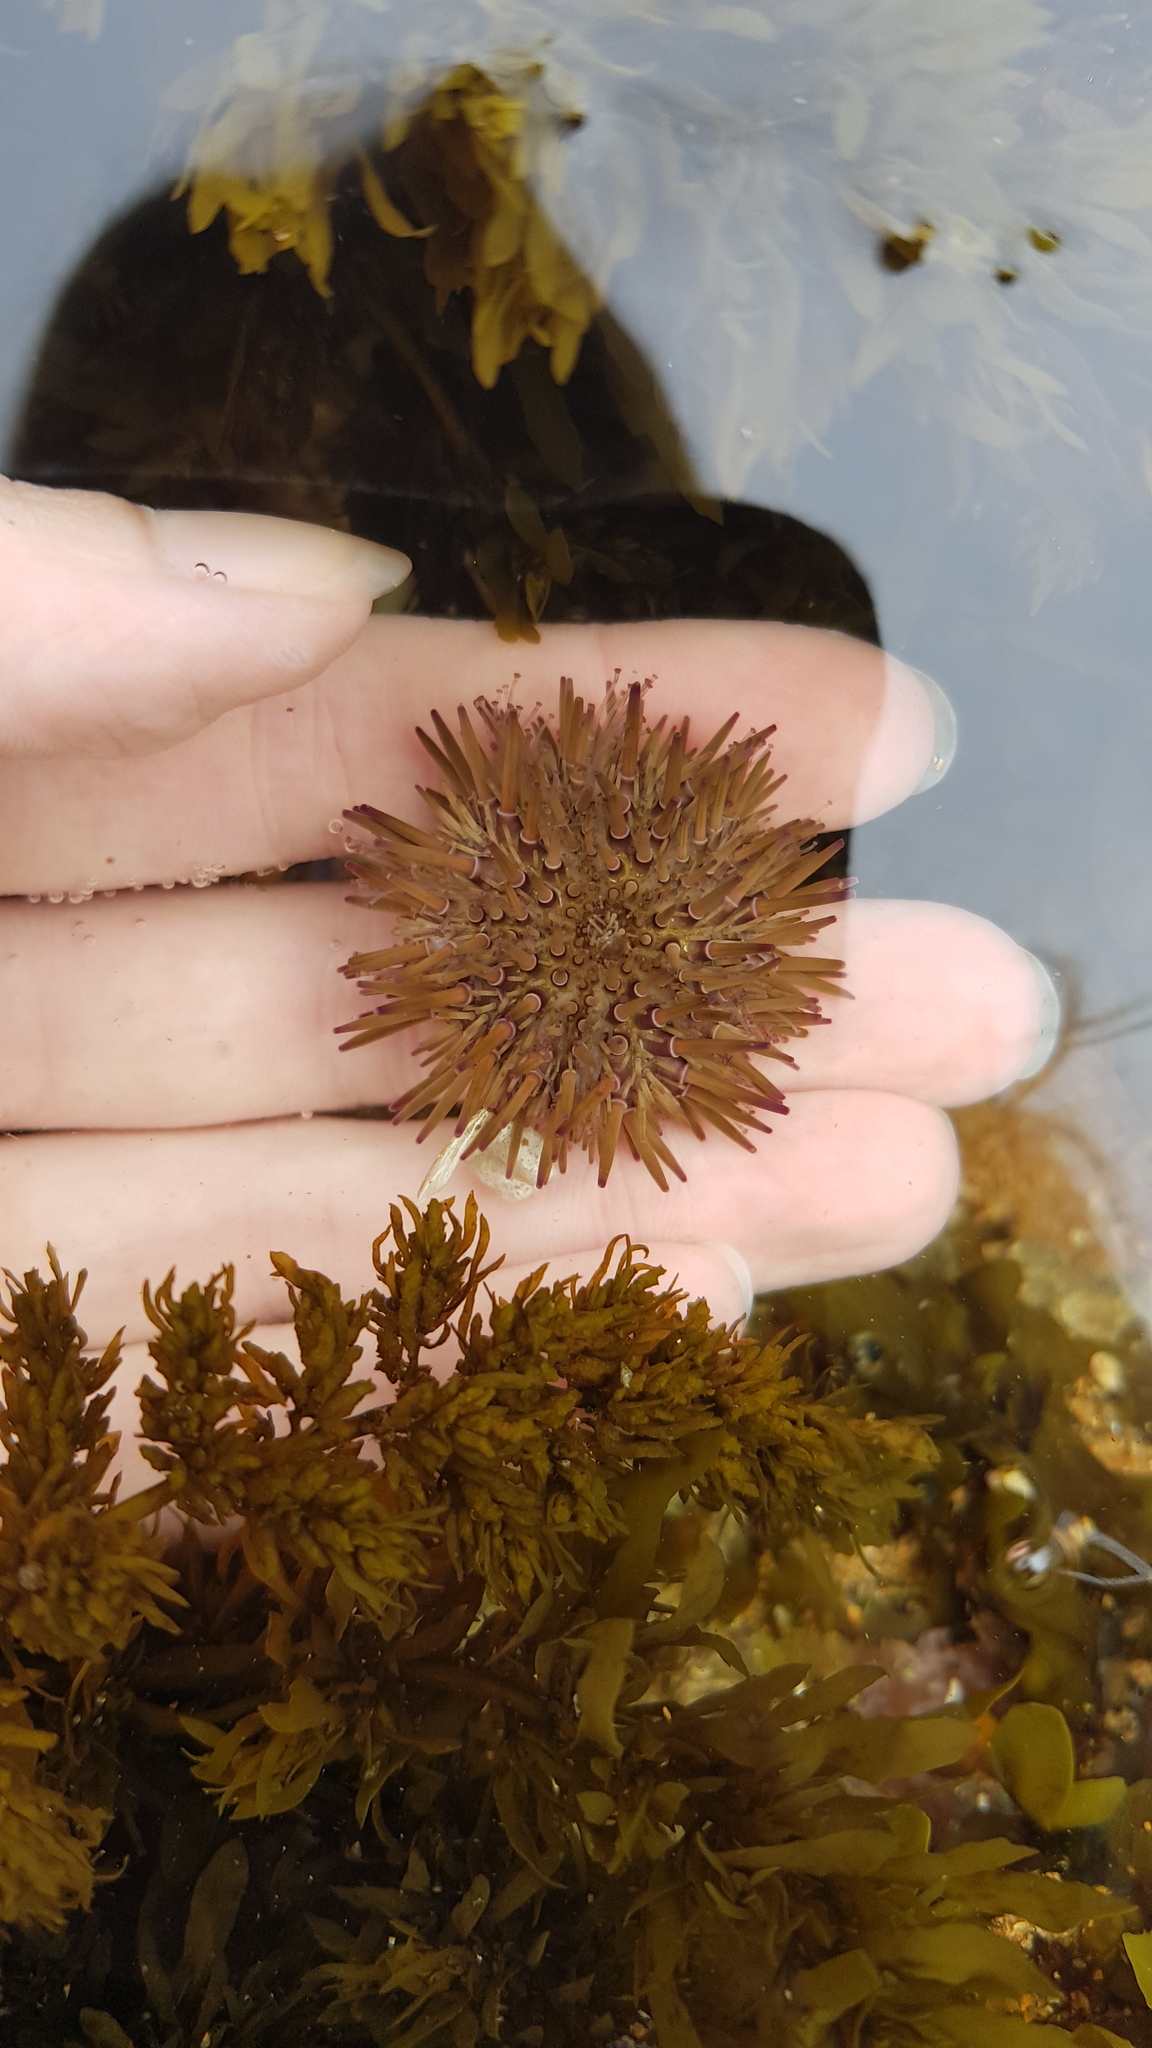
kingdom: Animalia
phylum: Echinodermata
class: Echinoidea
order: Camarodonta
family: Echinometridae
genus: Heliocidaris
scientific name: Heliocidaris erythrogramma
